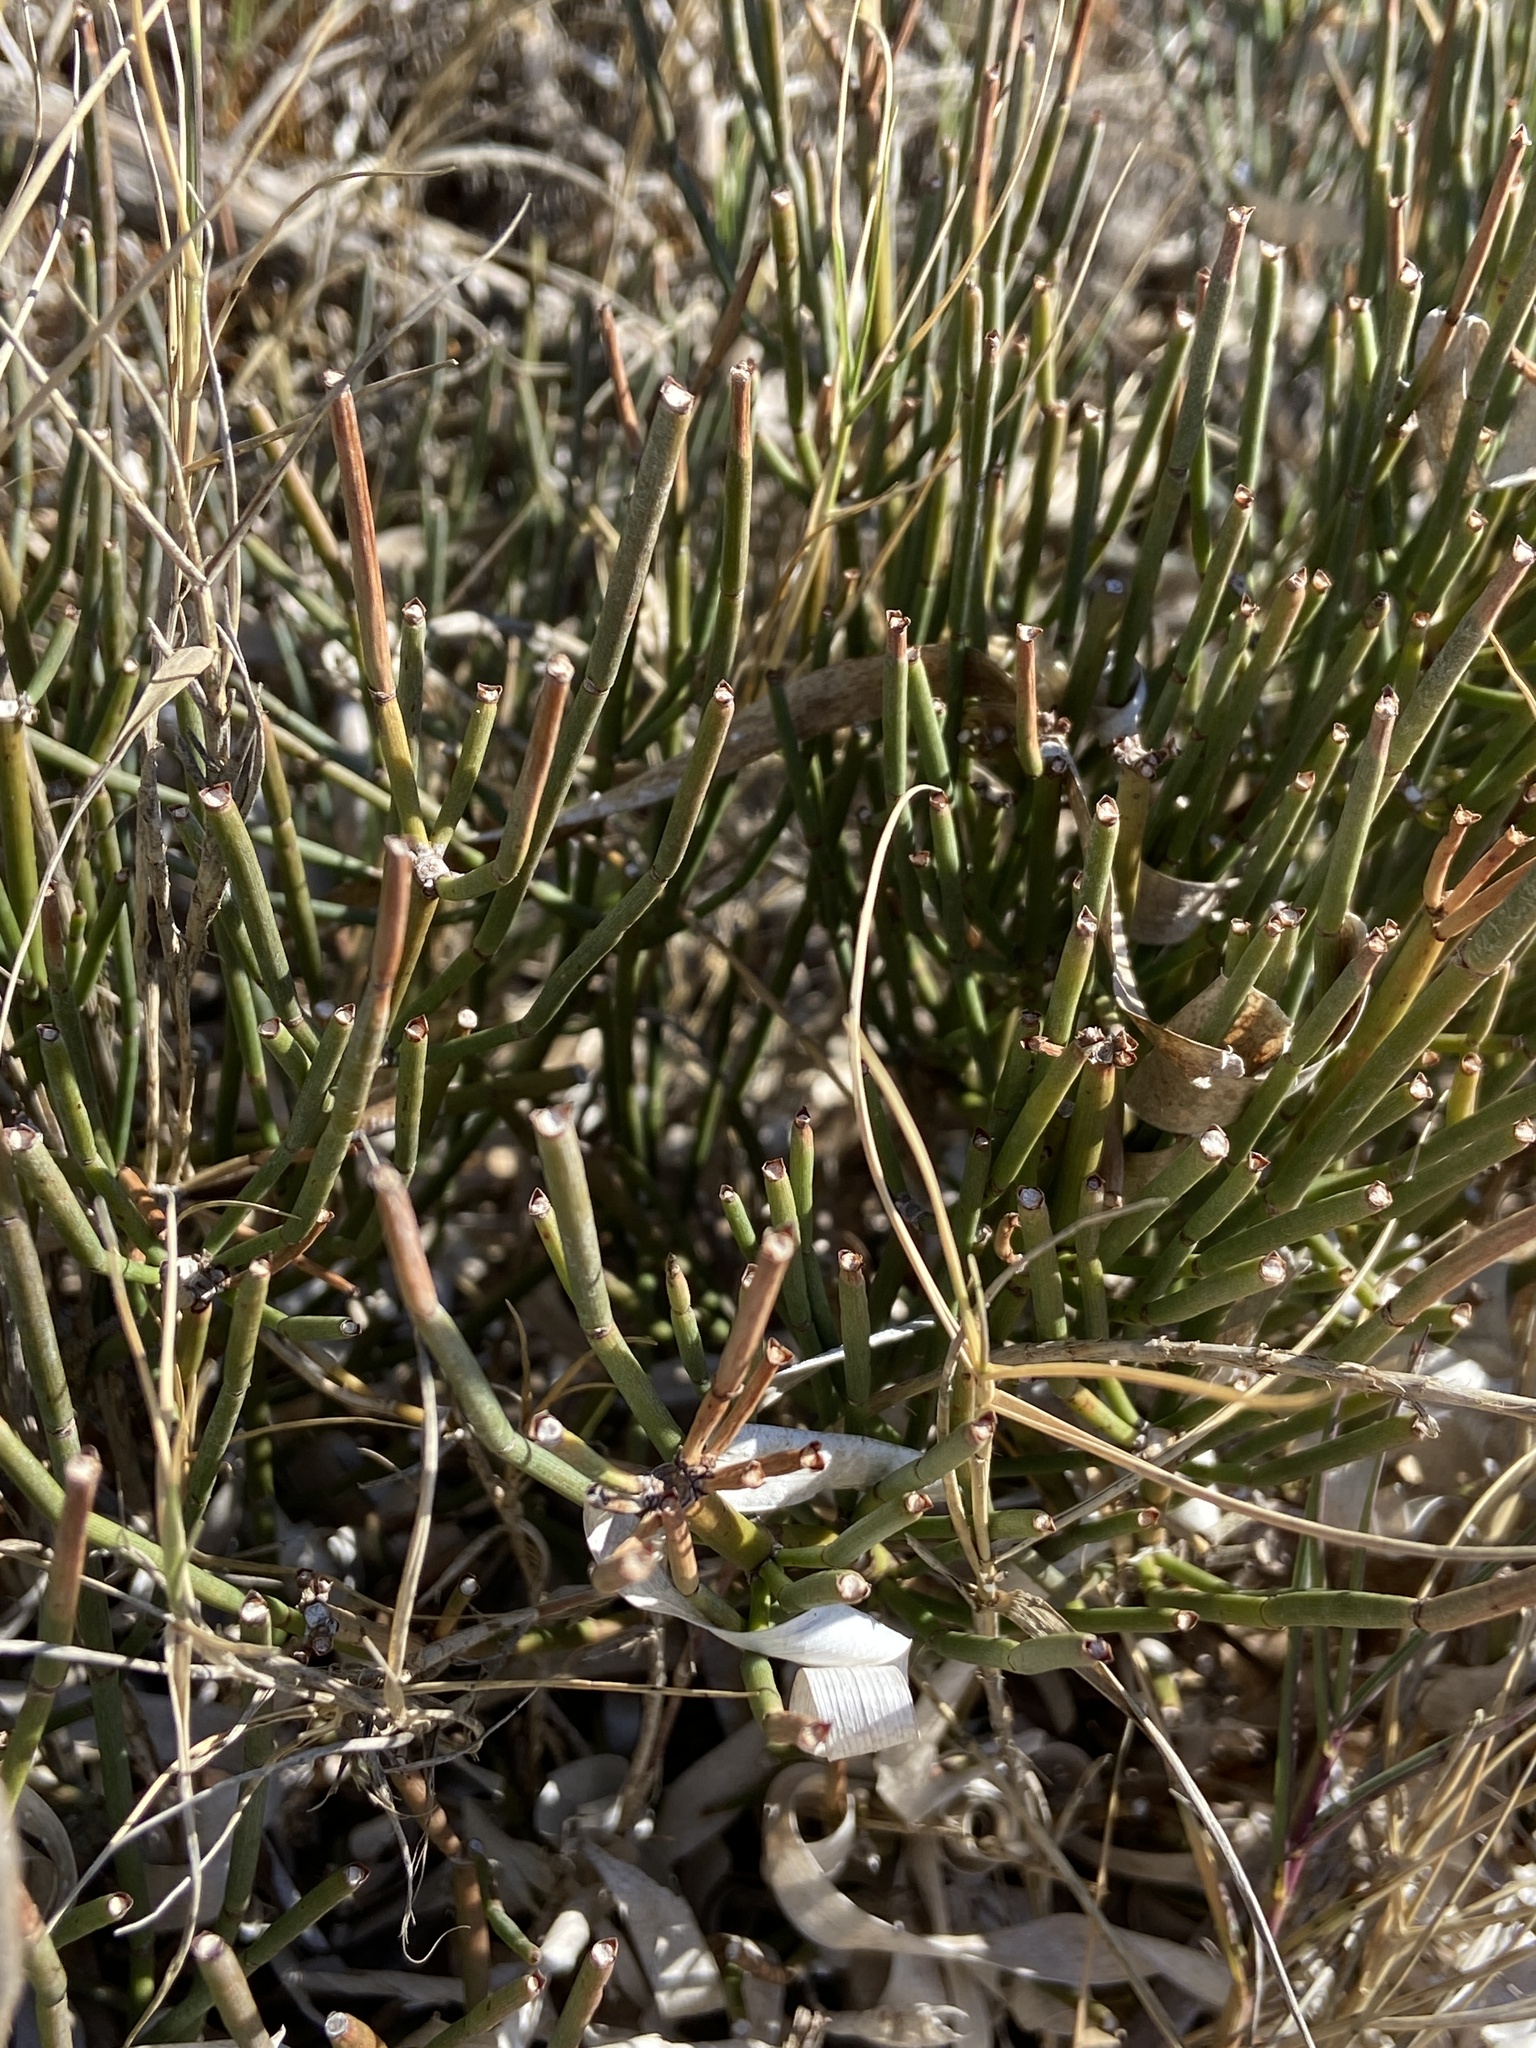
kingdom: Plantae
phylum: Tracheophyta
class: Gnetopsida
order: Ephedrales
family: Ephedraceae
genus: Ephedra
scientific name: Ephedra fragilis
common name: Joint pine
